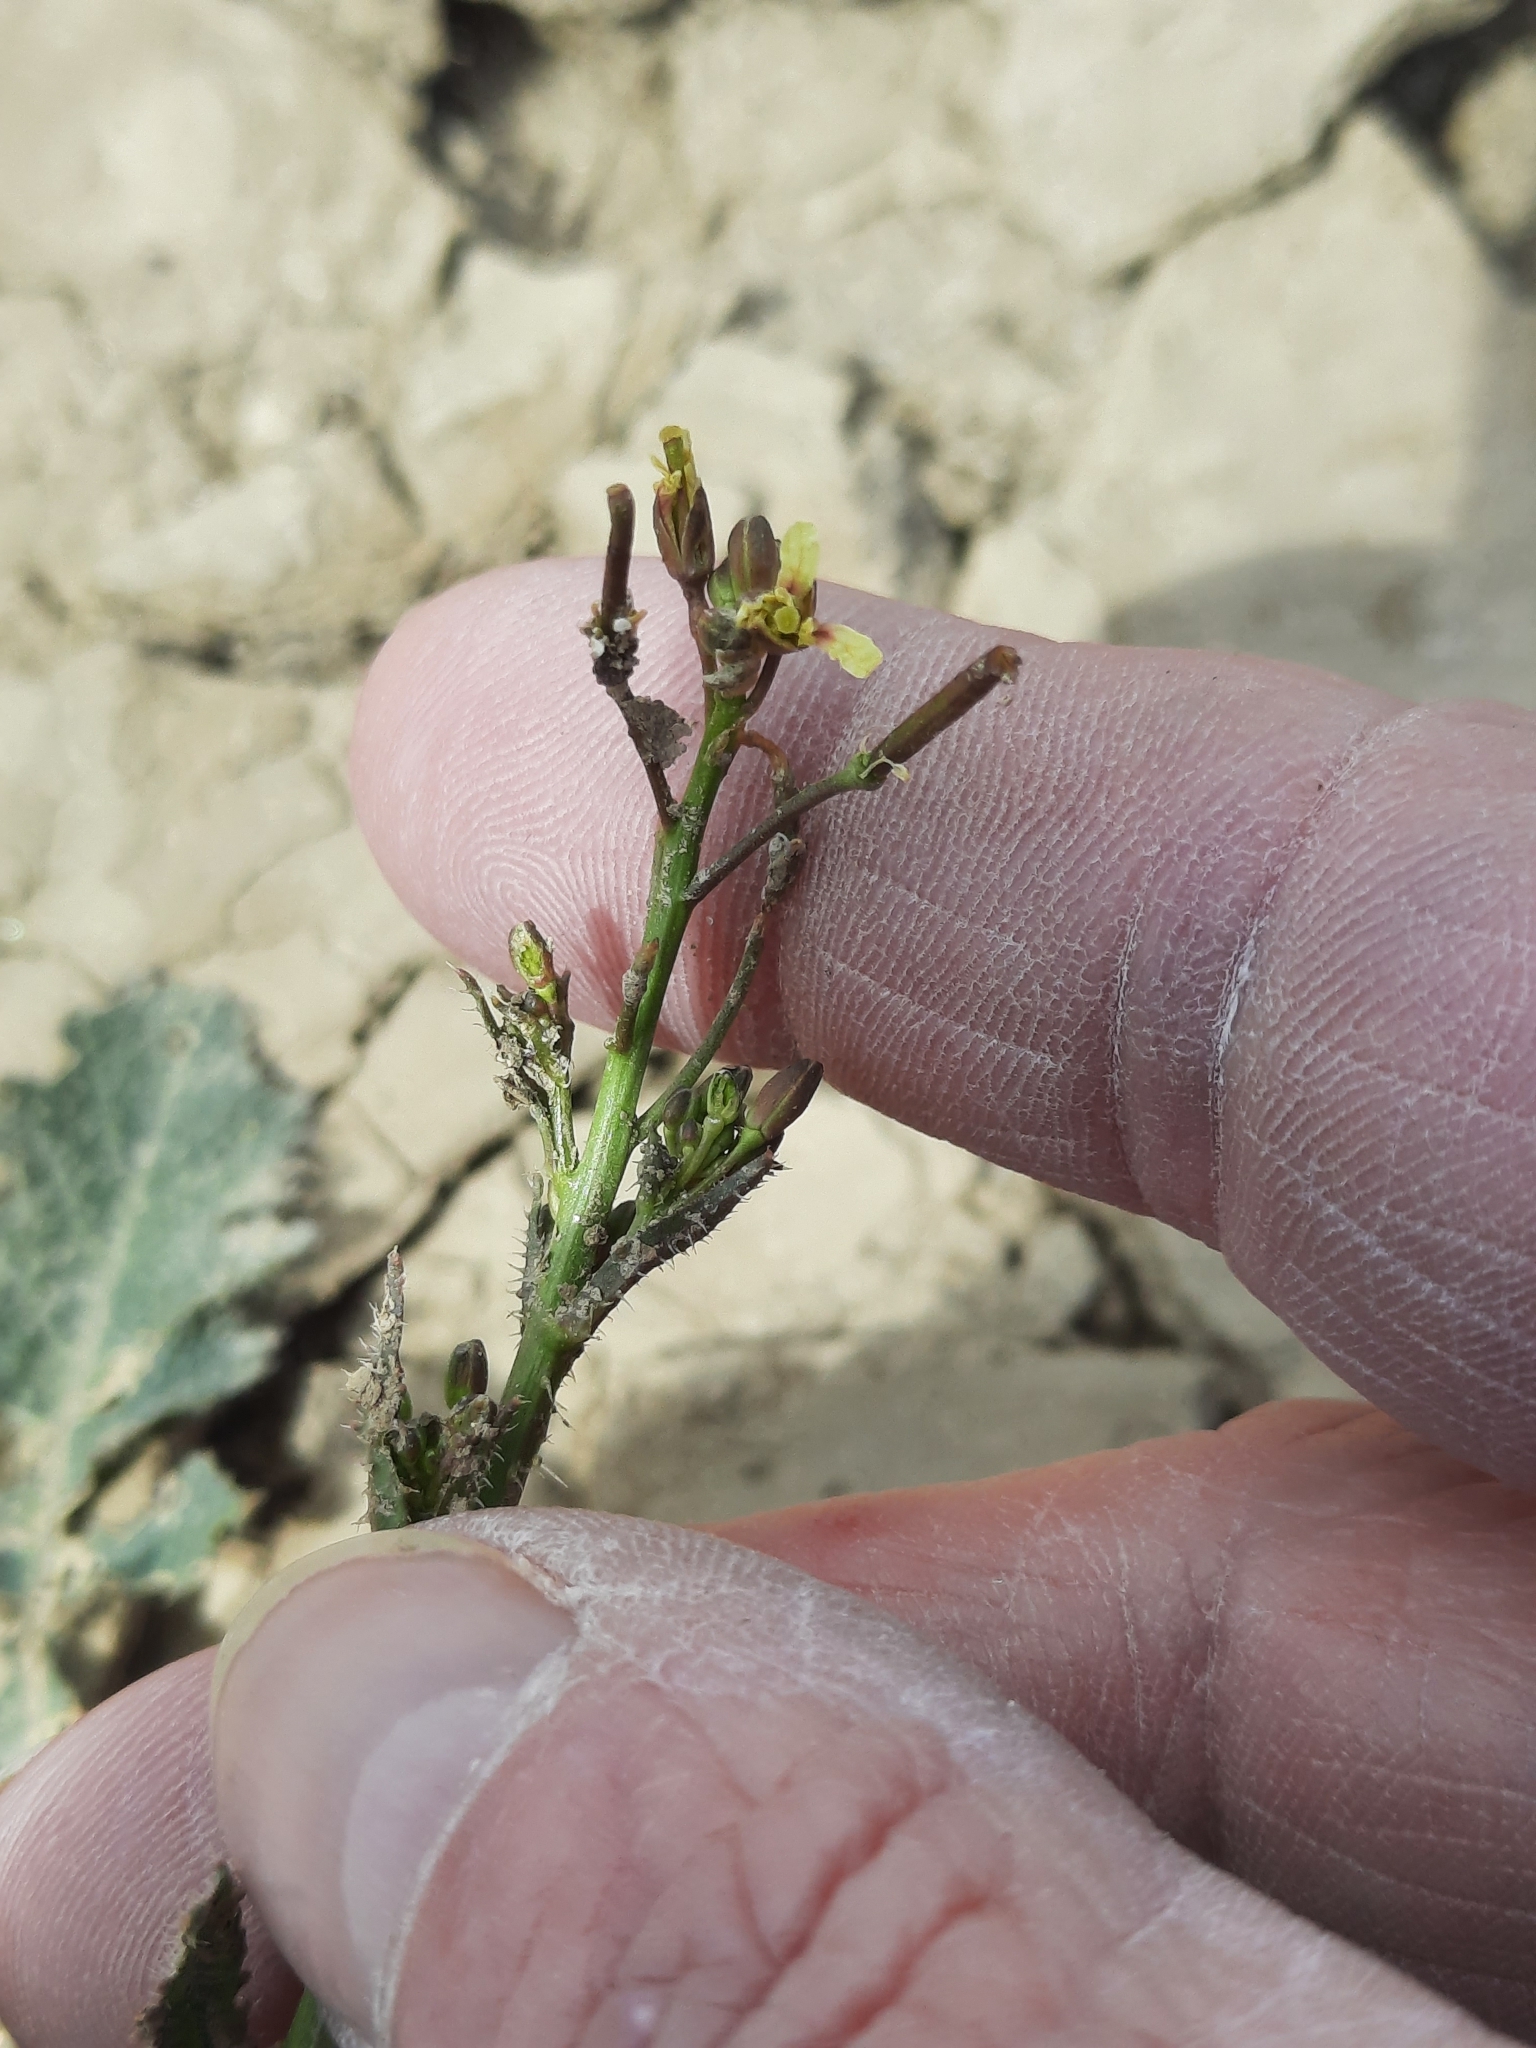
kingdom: Plantae
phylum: Tracheophyta
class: Magnoliopsida
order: Brassicales
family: Brassicaceae
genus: Brassica
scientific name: Brassica tournefortii
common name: Pale cabbage
